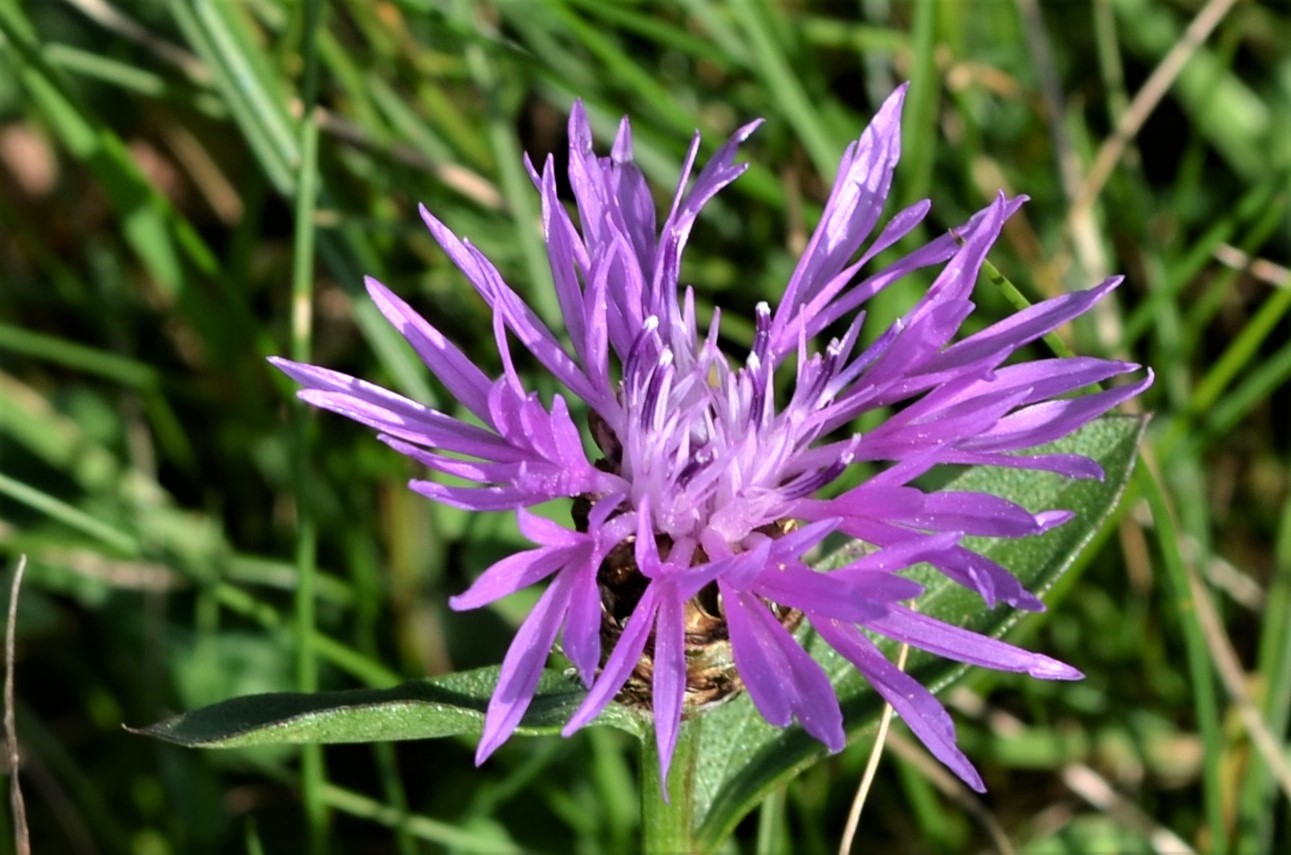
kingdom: Plantae
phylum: Tracheophyta
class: Magnoliopsida
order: Asterales
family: Asteraceae
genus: Centaurea
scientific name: Centaurea jacea
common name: Brown knapweed
